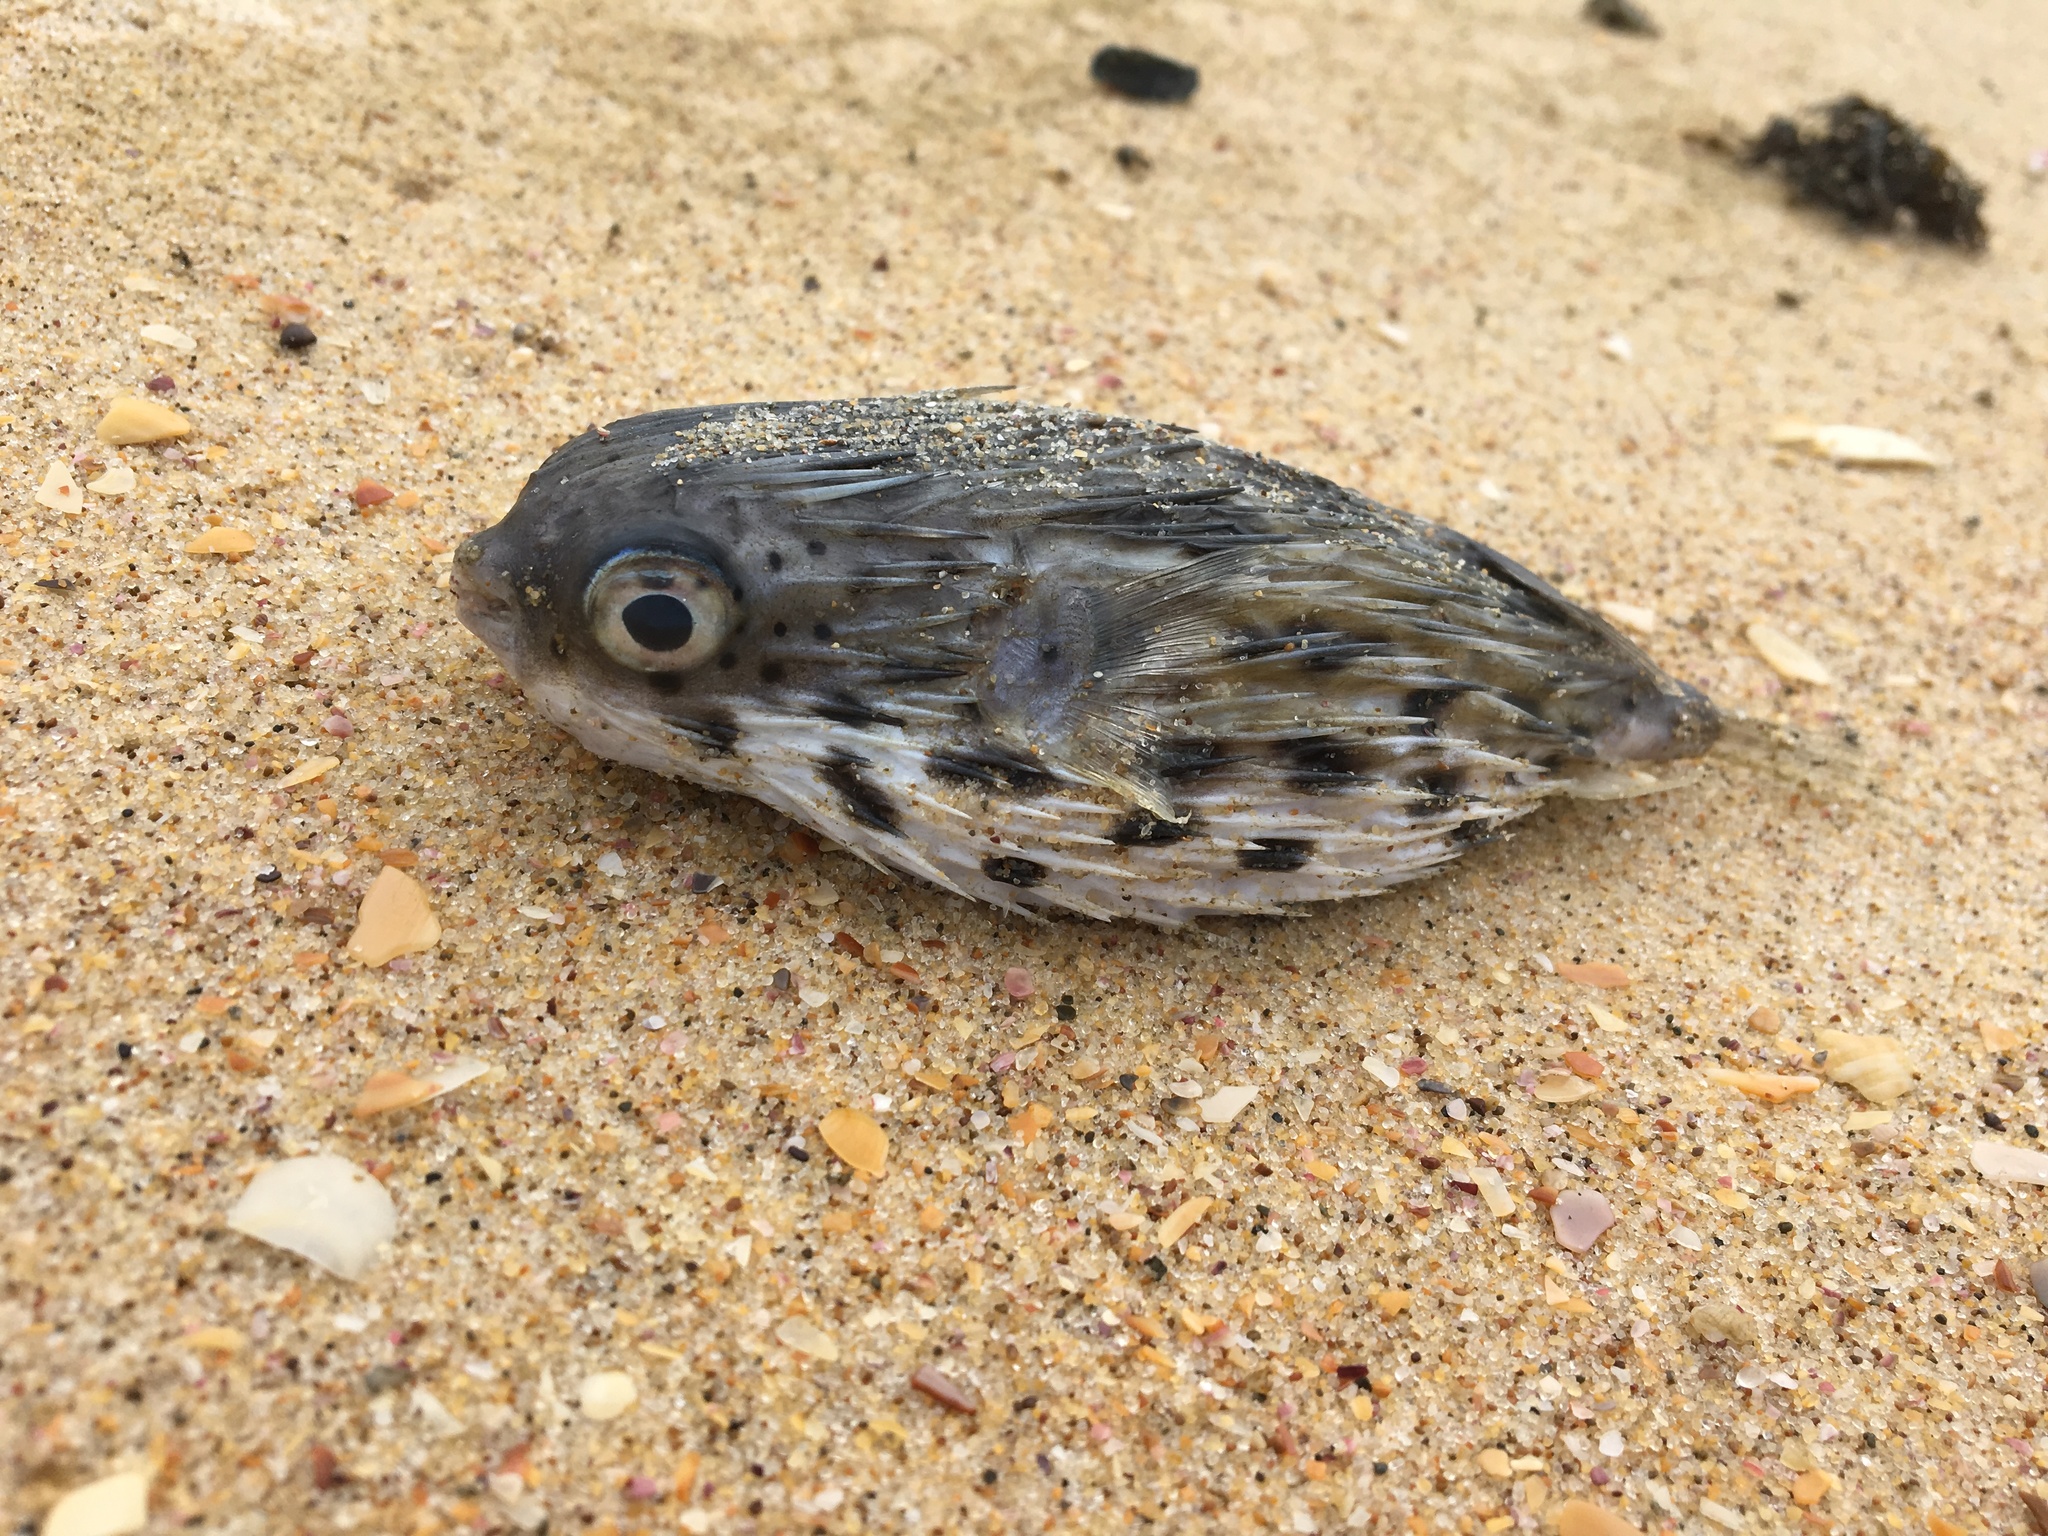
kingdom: Animalia
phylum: Chordata
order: Tetraodontiformes
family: Diodontidae
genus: Diodon
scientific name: Diodon holocanthus
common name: Balloonfish
